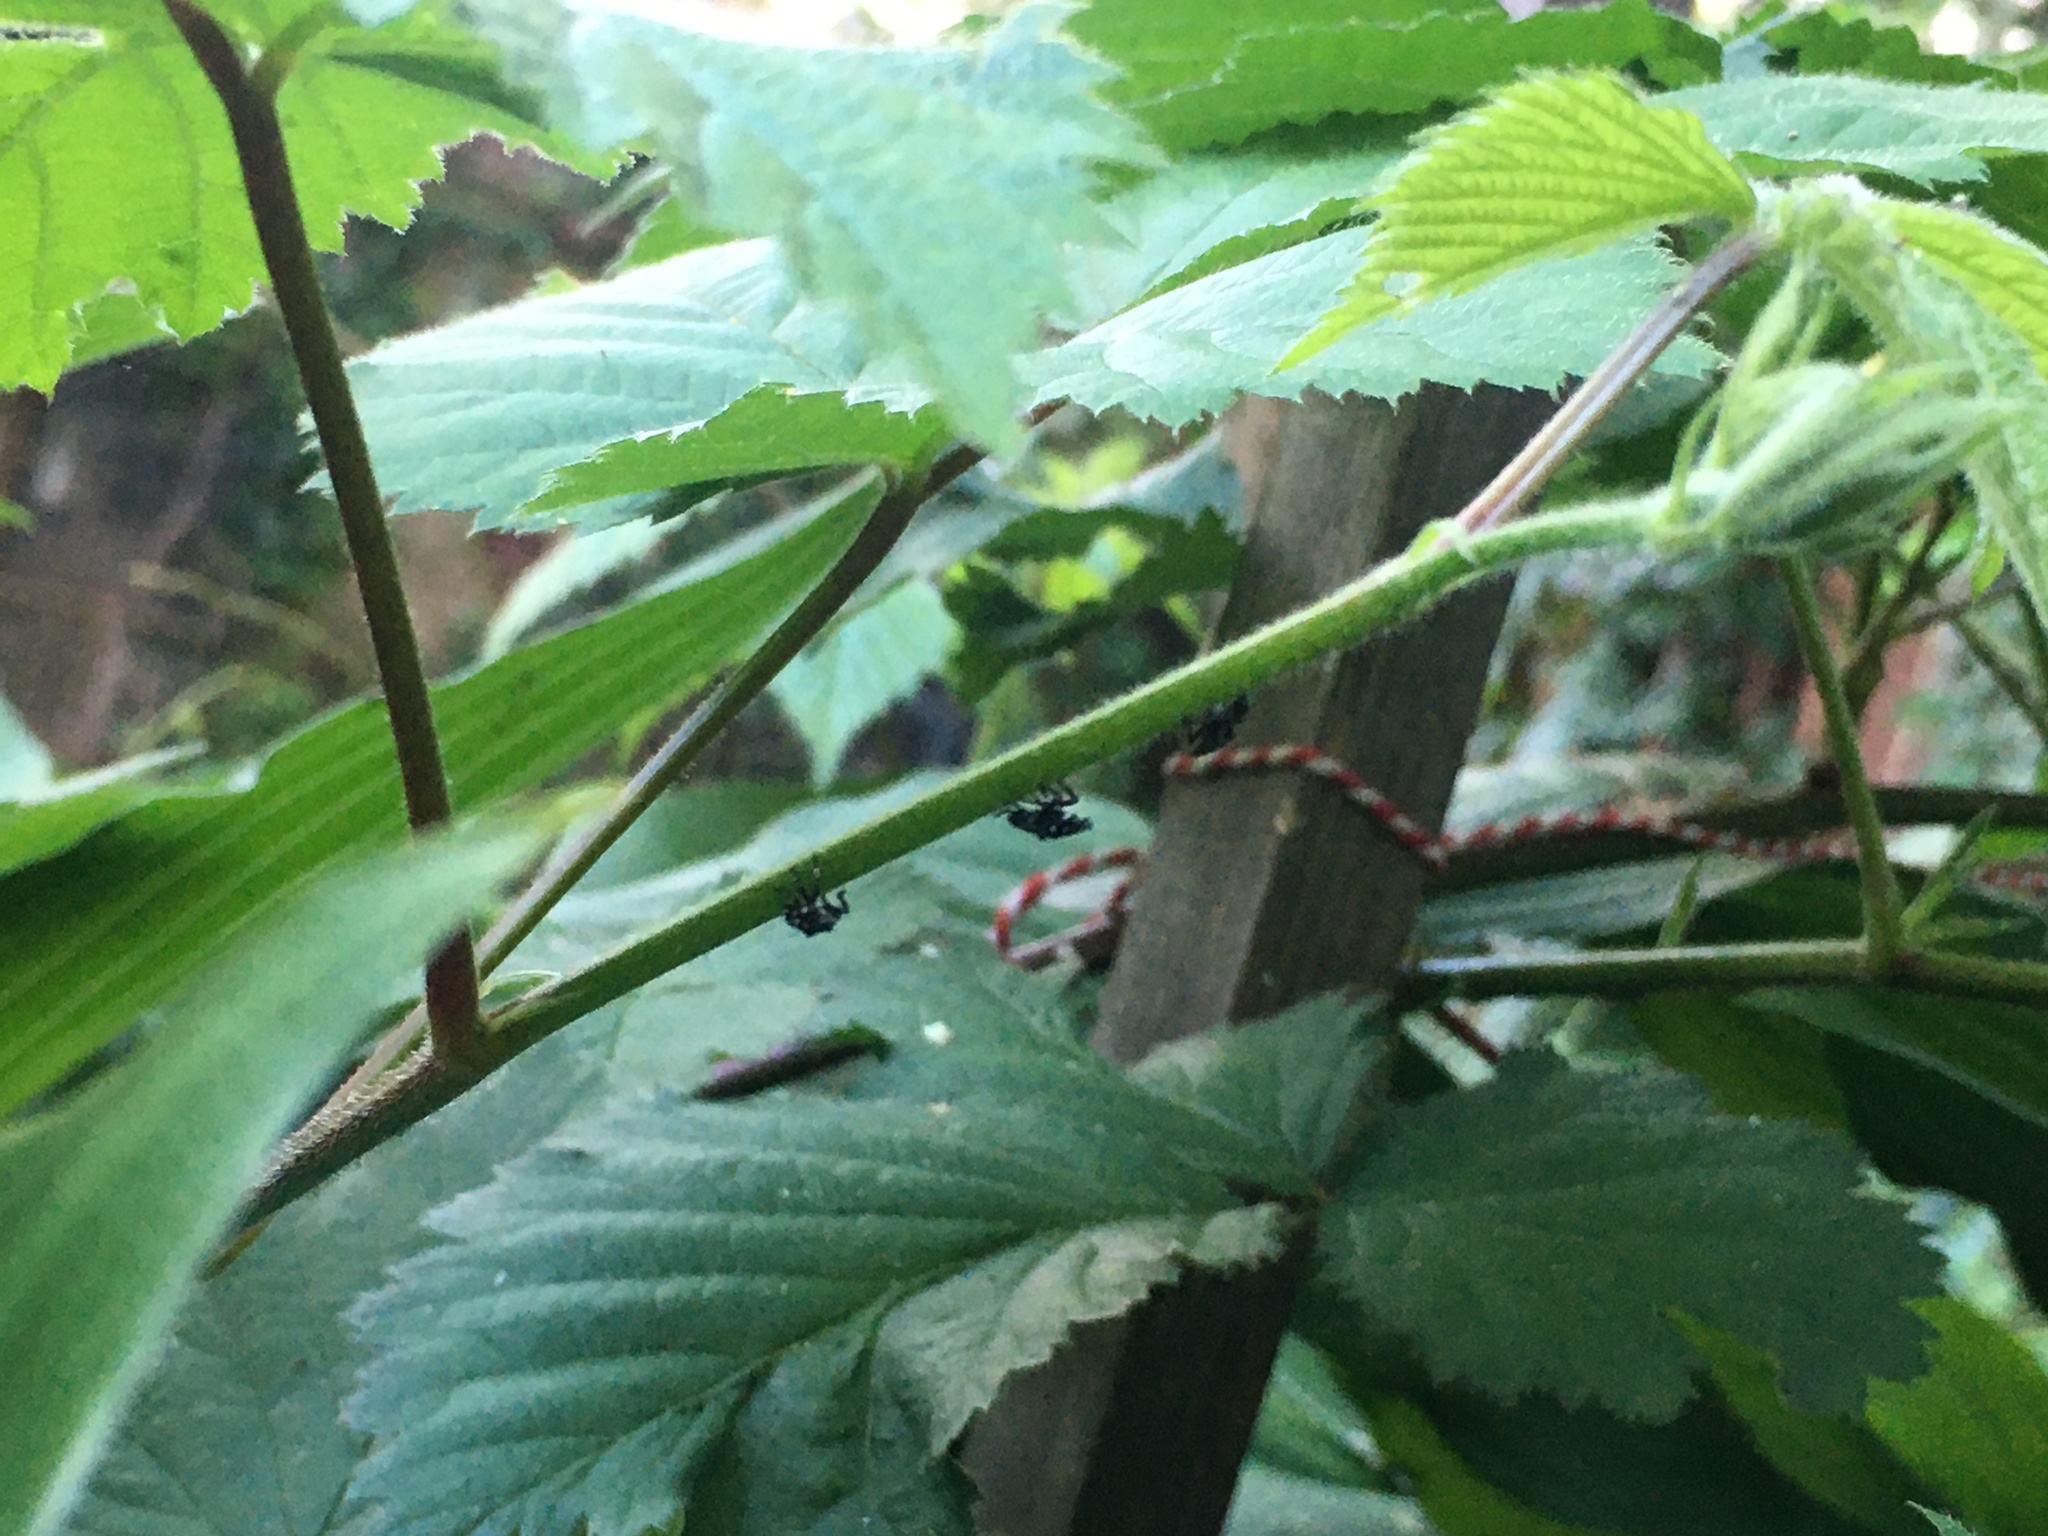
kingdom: Animalia
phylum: Arthropoda
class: Insecta
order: Hemiptera
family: Fulgoridae
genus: Lycorma
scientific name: Lycorma delicatula
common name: Spotted lanternfly
